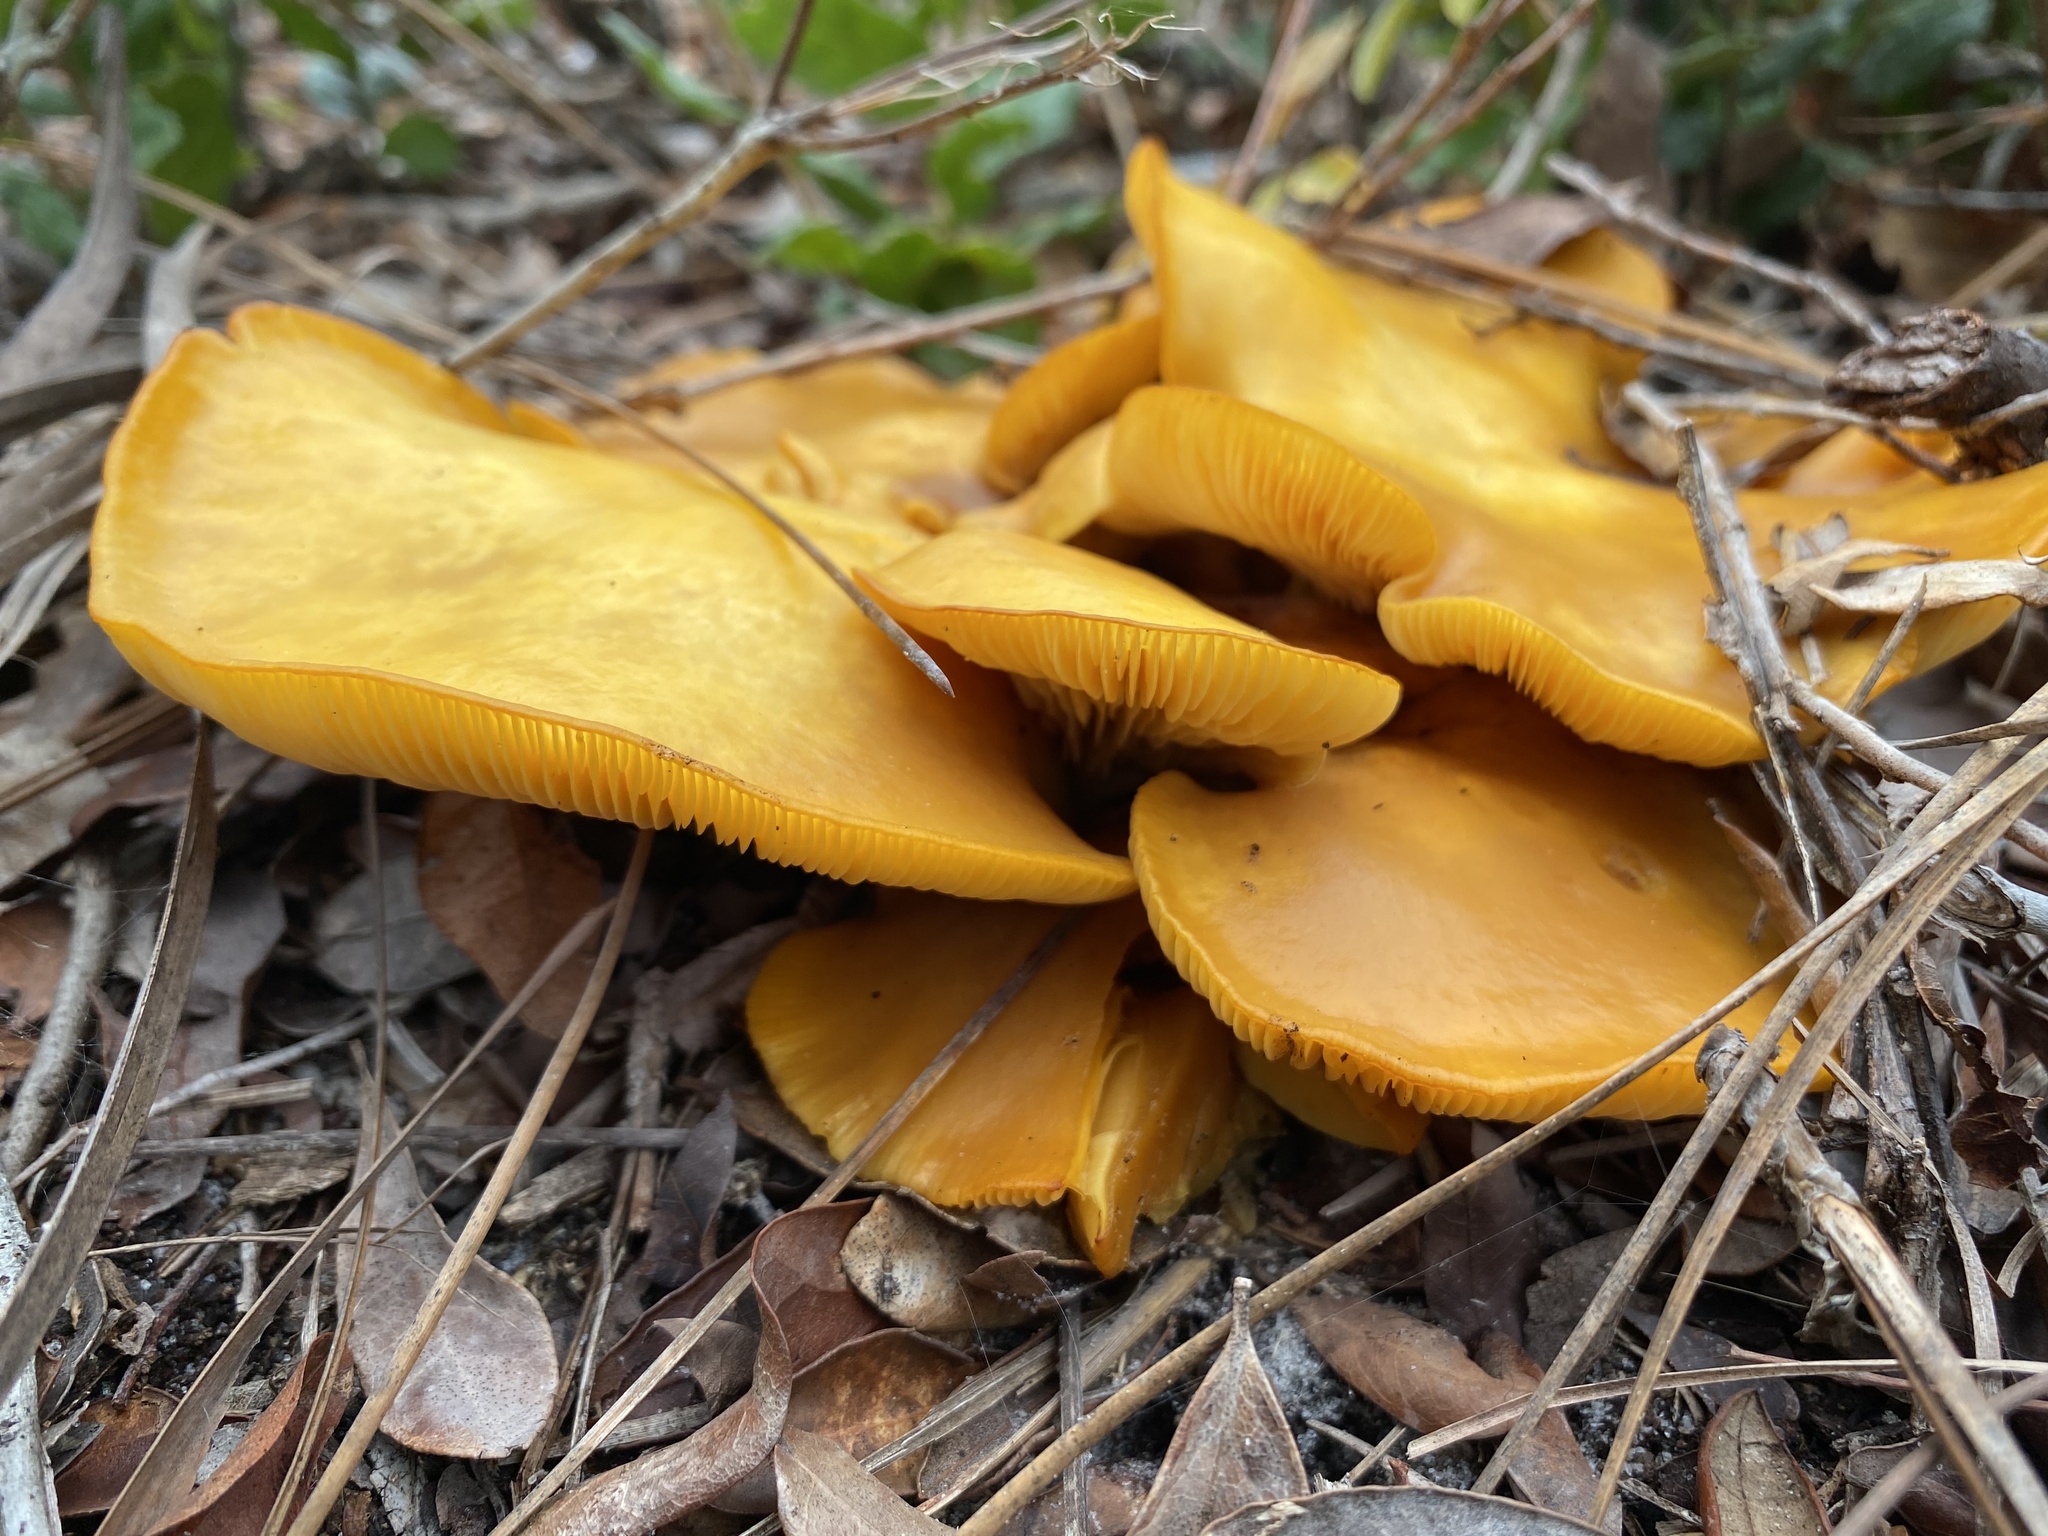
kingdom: Fungi
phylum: Basidiomycota
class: Agaricomycetes
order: Agaricales
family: Omphalotaceae
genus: Omphalotus
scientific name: Omphalotus subilludens
